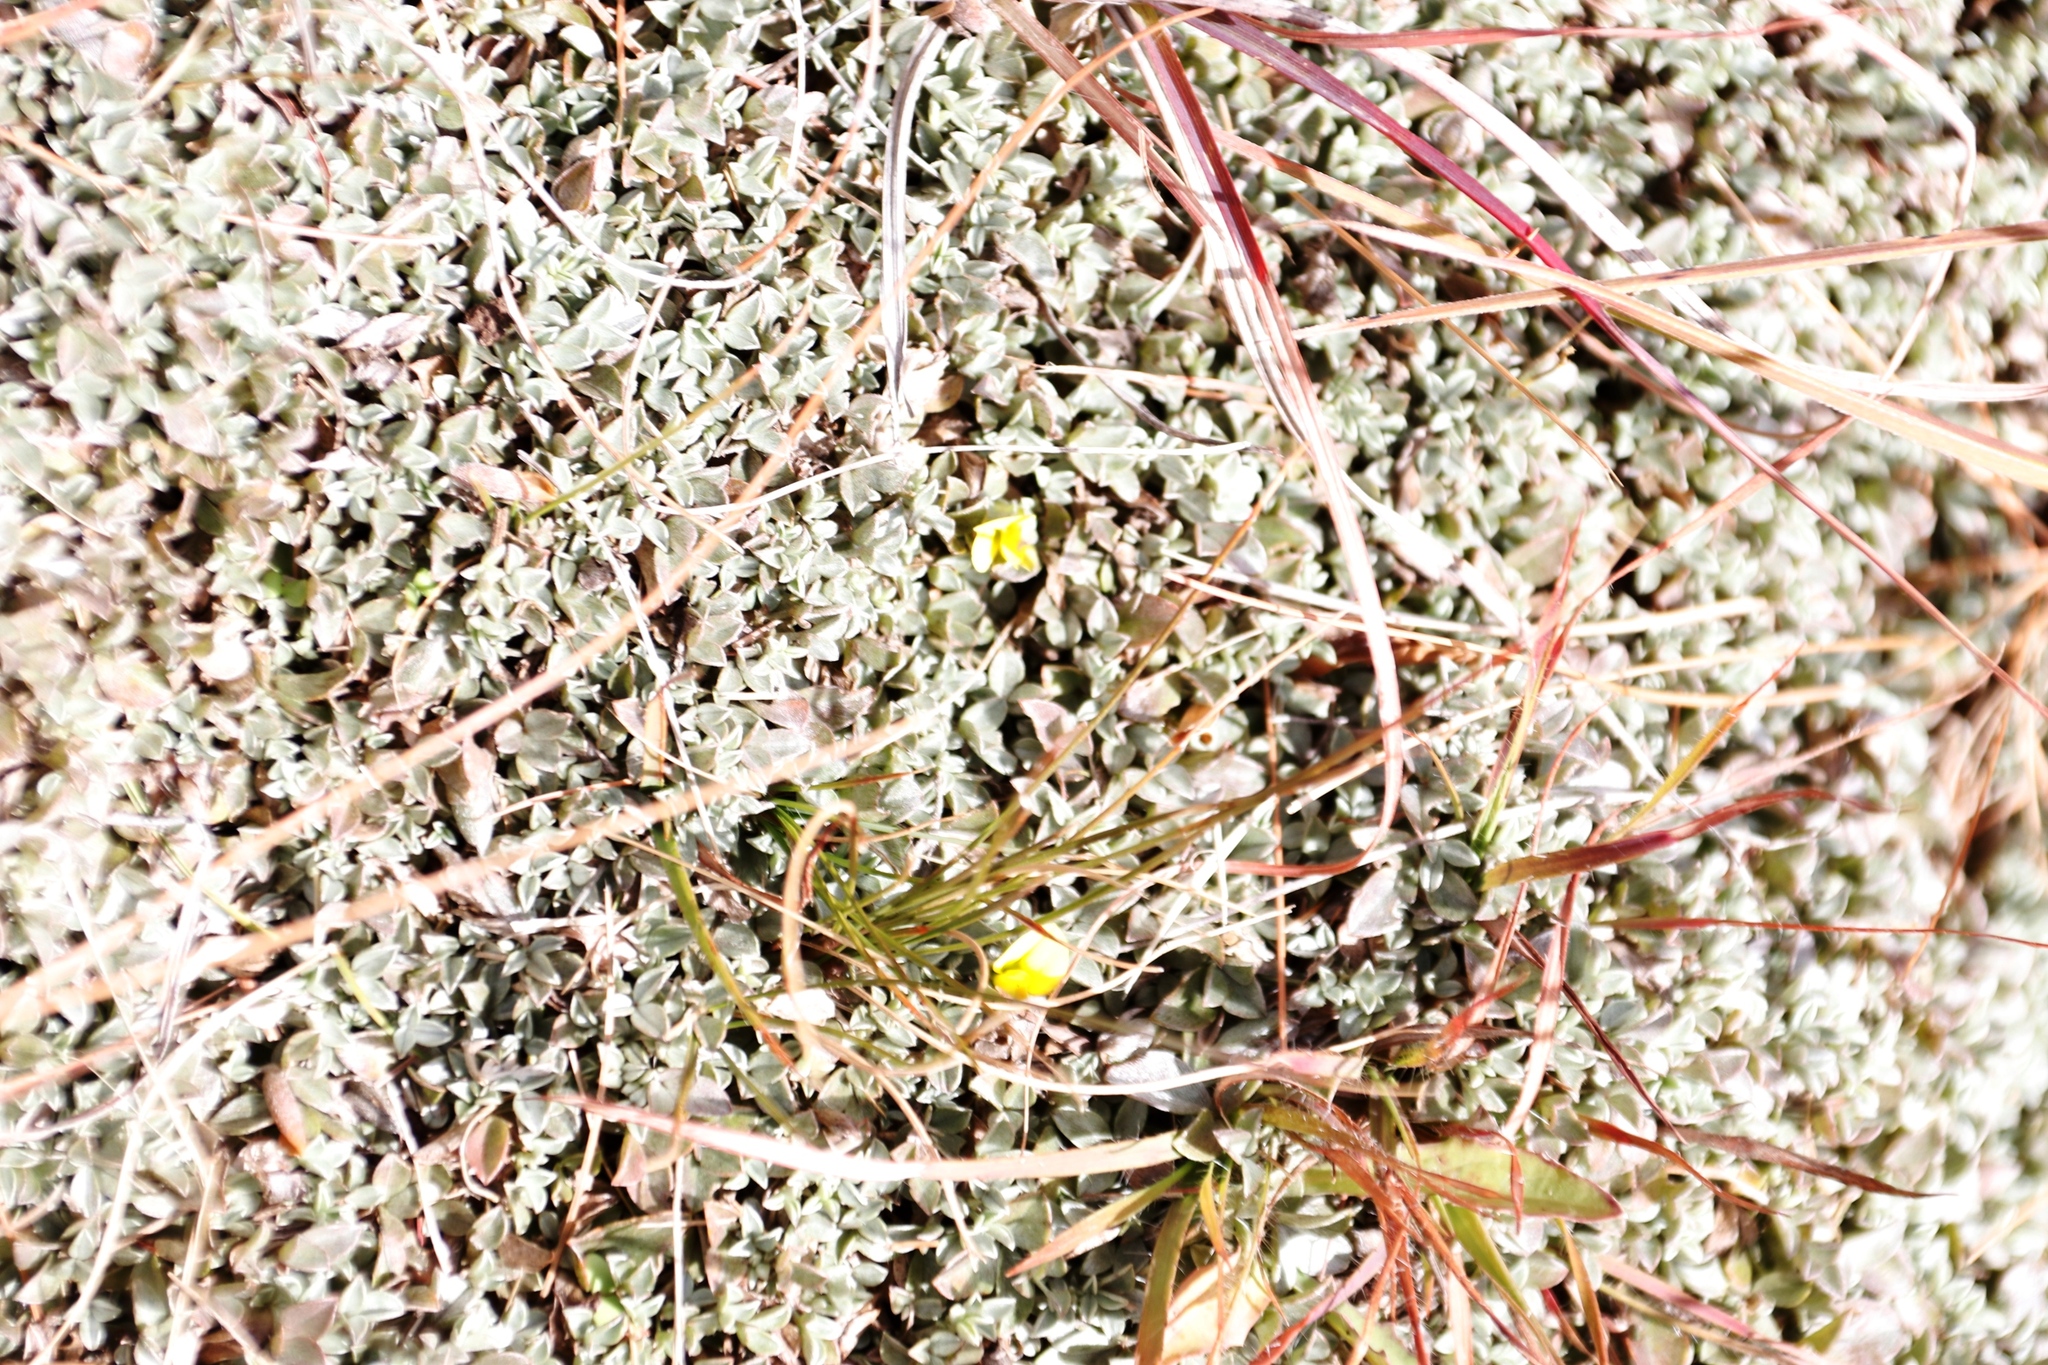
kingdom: Plantae
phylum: Tracheophyta
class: Magnoliopsida
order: Fabales
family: Fabaceae
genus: Lotononis
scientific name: Lotononis laxa
